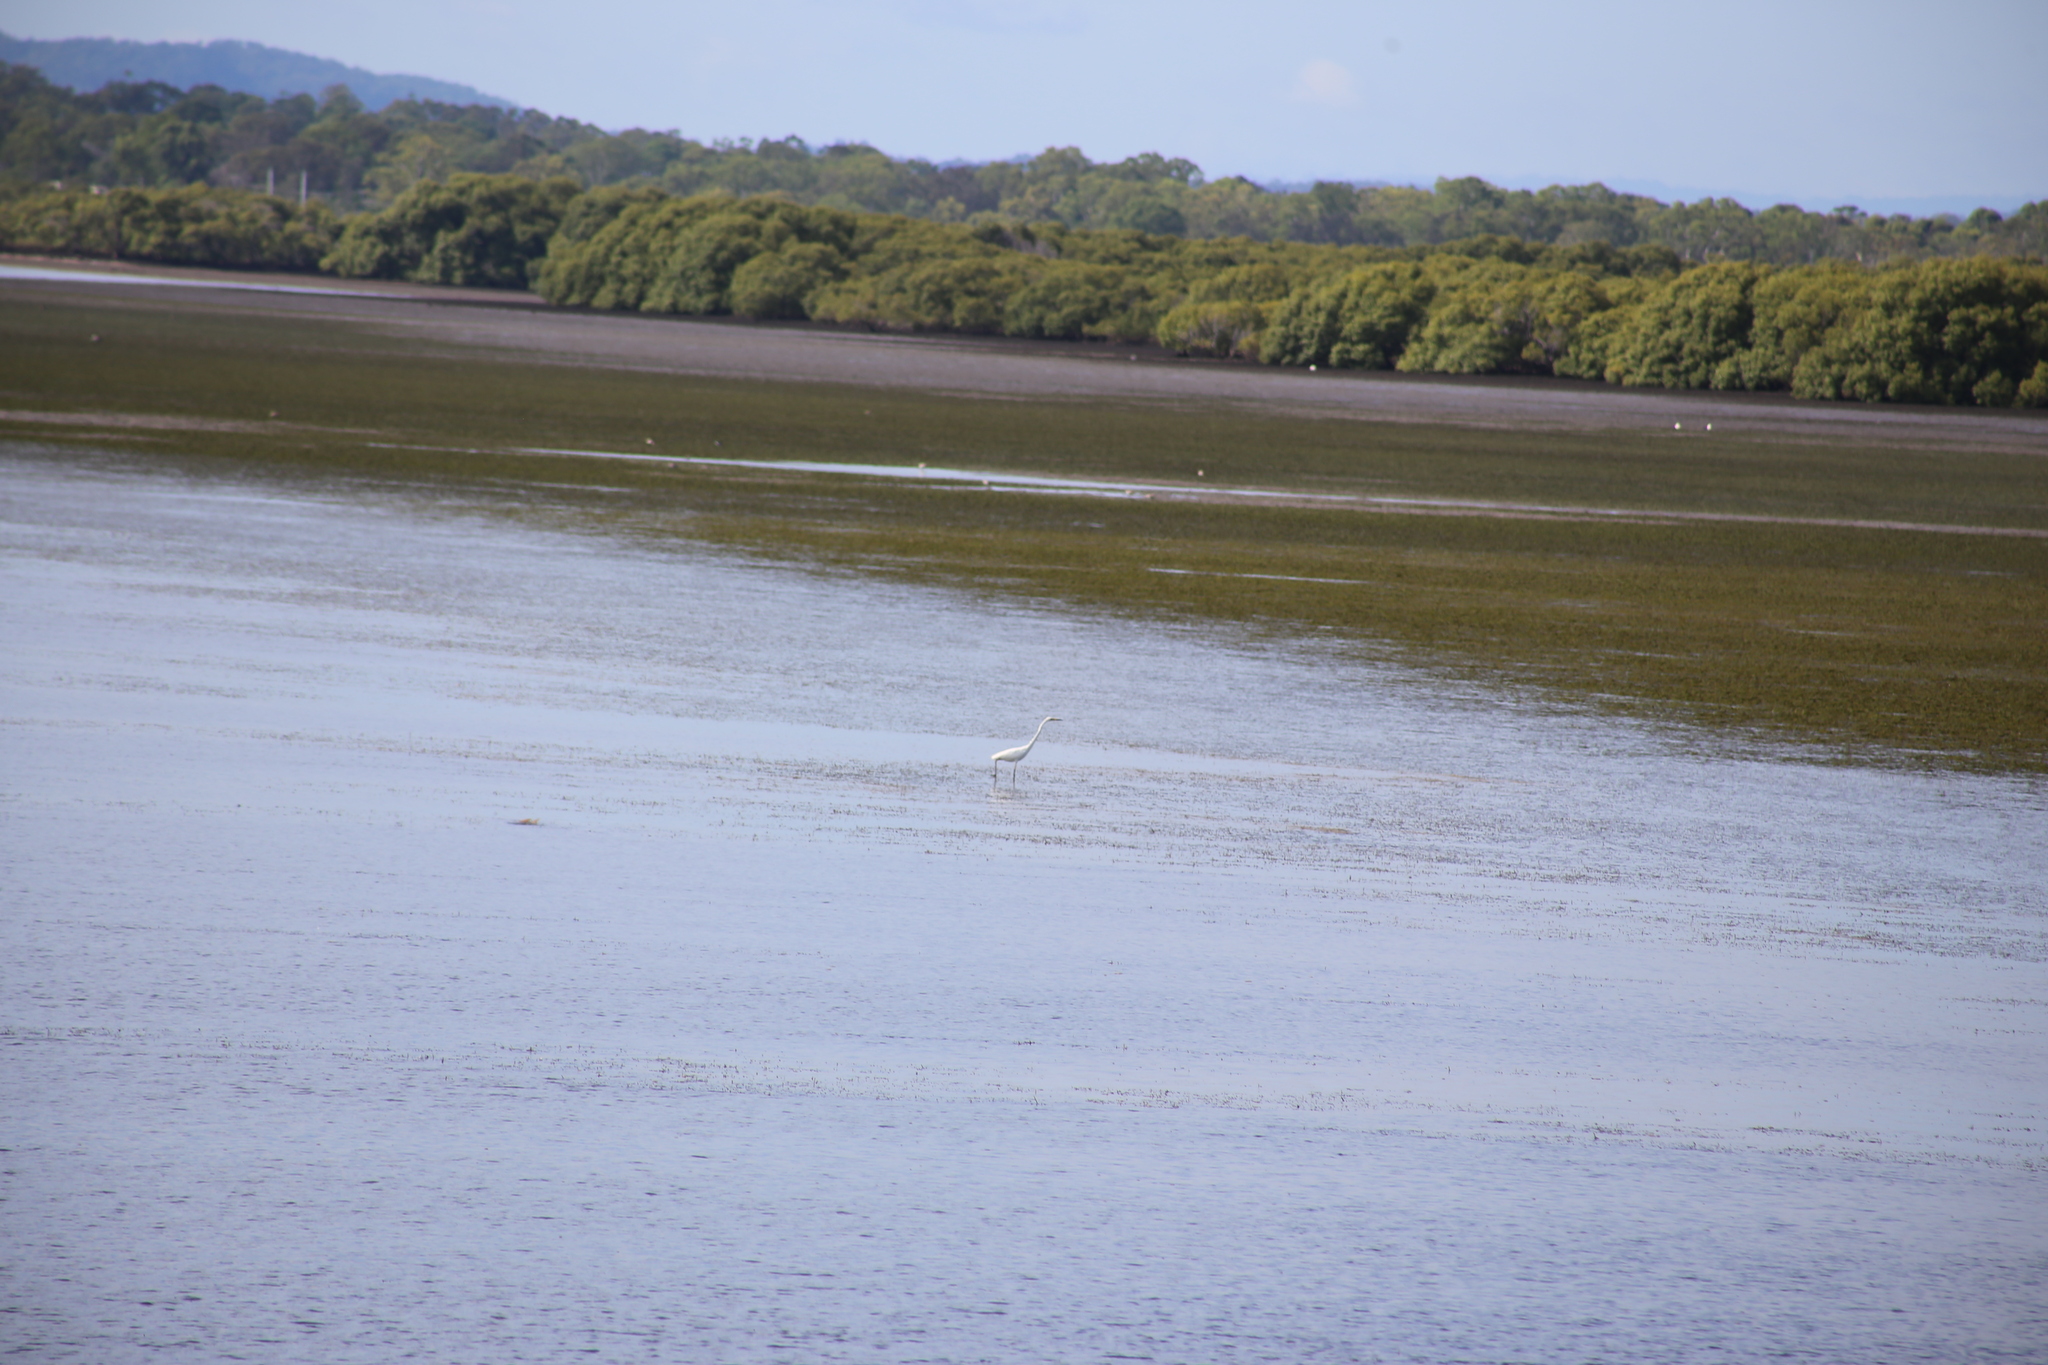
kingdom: Animalia
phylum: Chordata
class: Aves
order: Pelecaniformes
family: Ardeidae
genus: Ardea
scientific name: Ardea alba
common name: Great egret
